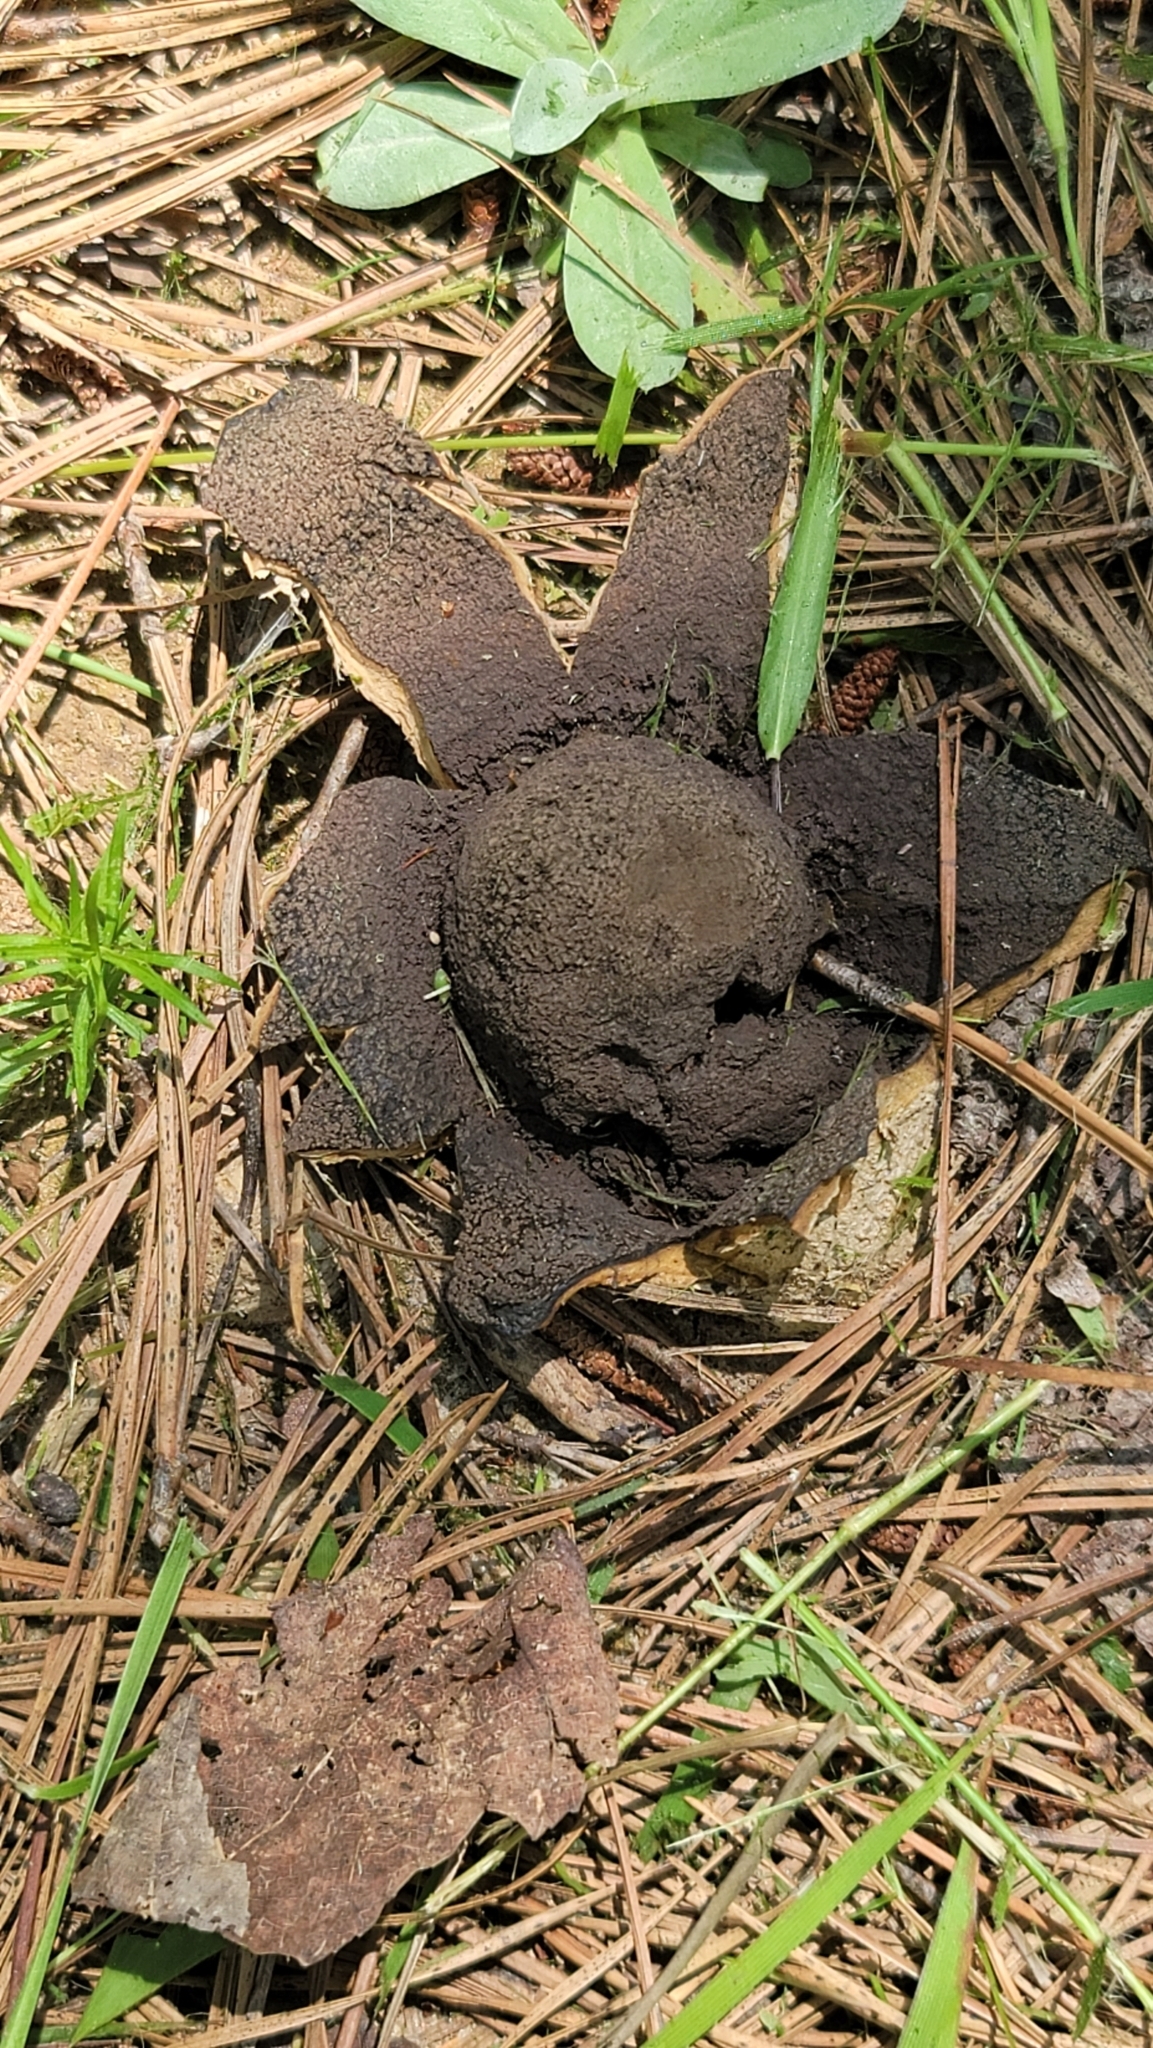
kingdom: Fungi
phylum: Basidiomycota
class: Agaricomycetes
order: Boletales
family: Sclerodermataceae
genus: Scleroderma
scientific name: Scleroderma polyrhizum
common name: Many-rooted earthball
